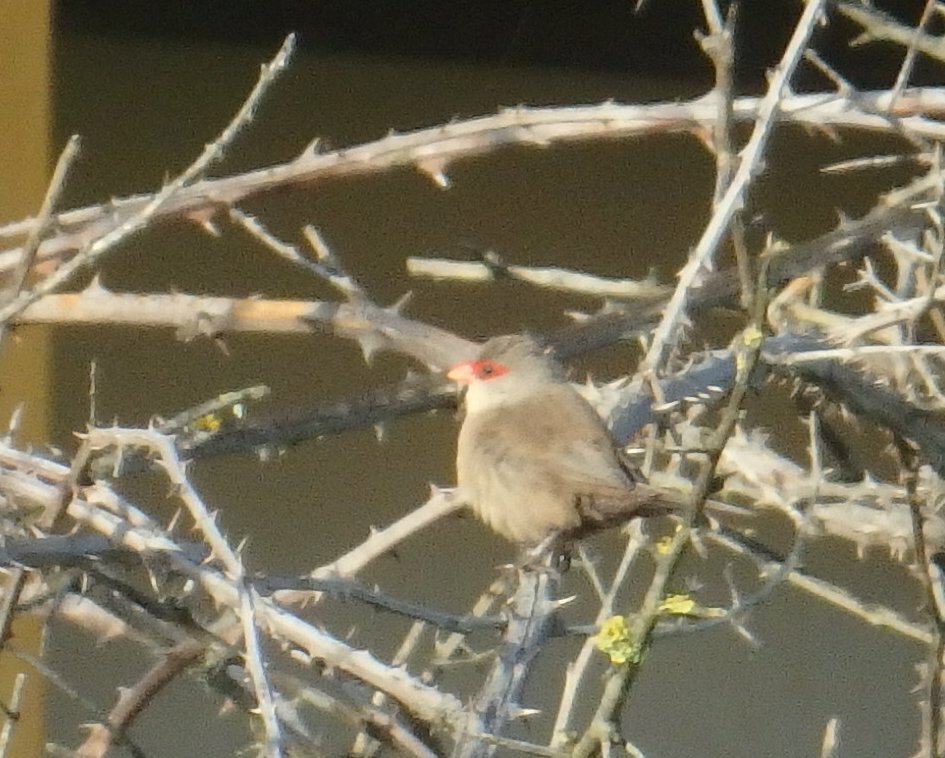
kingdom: Animalia
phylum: Chordata
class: Aves
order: Passeriformes
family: Estrildidae
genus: Estrilda
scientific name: Estrilda astrild
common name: Common waxbill
